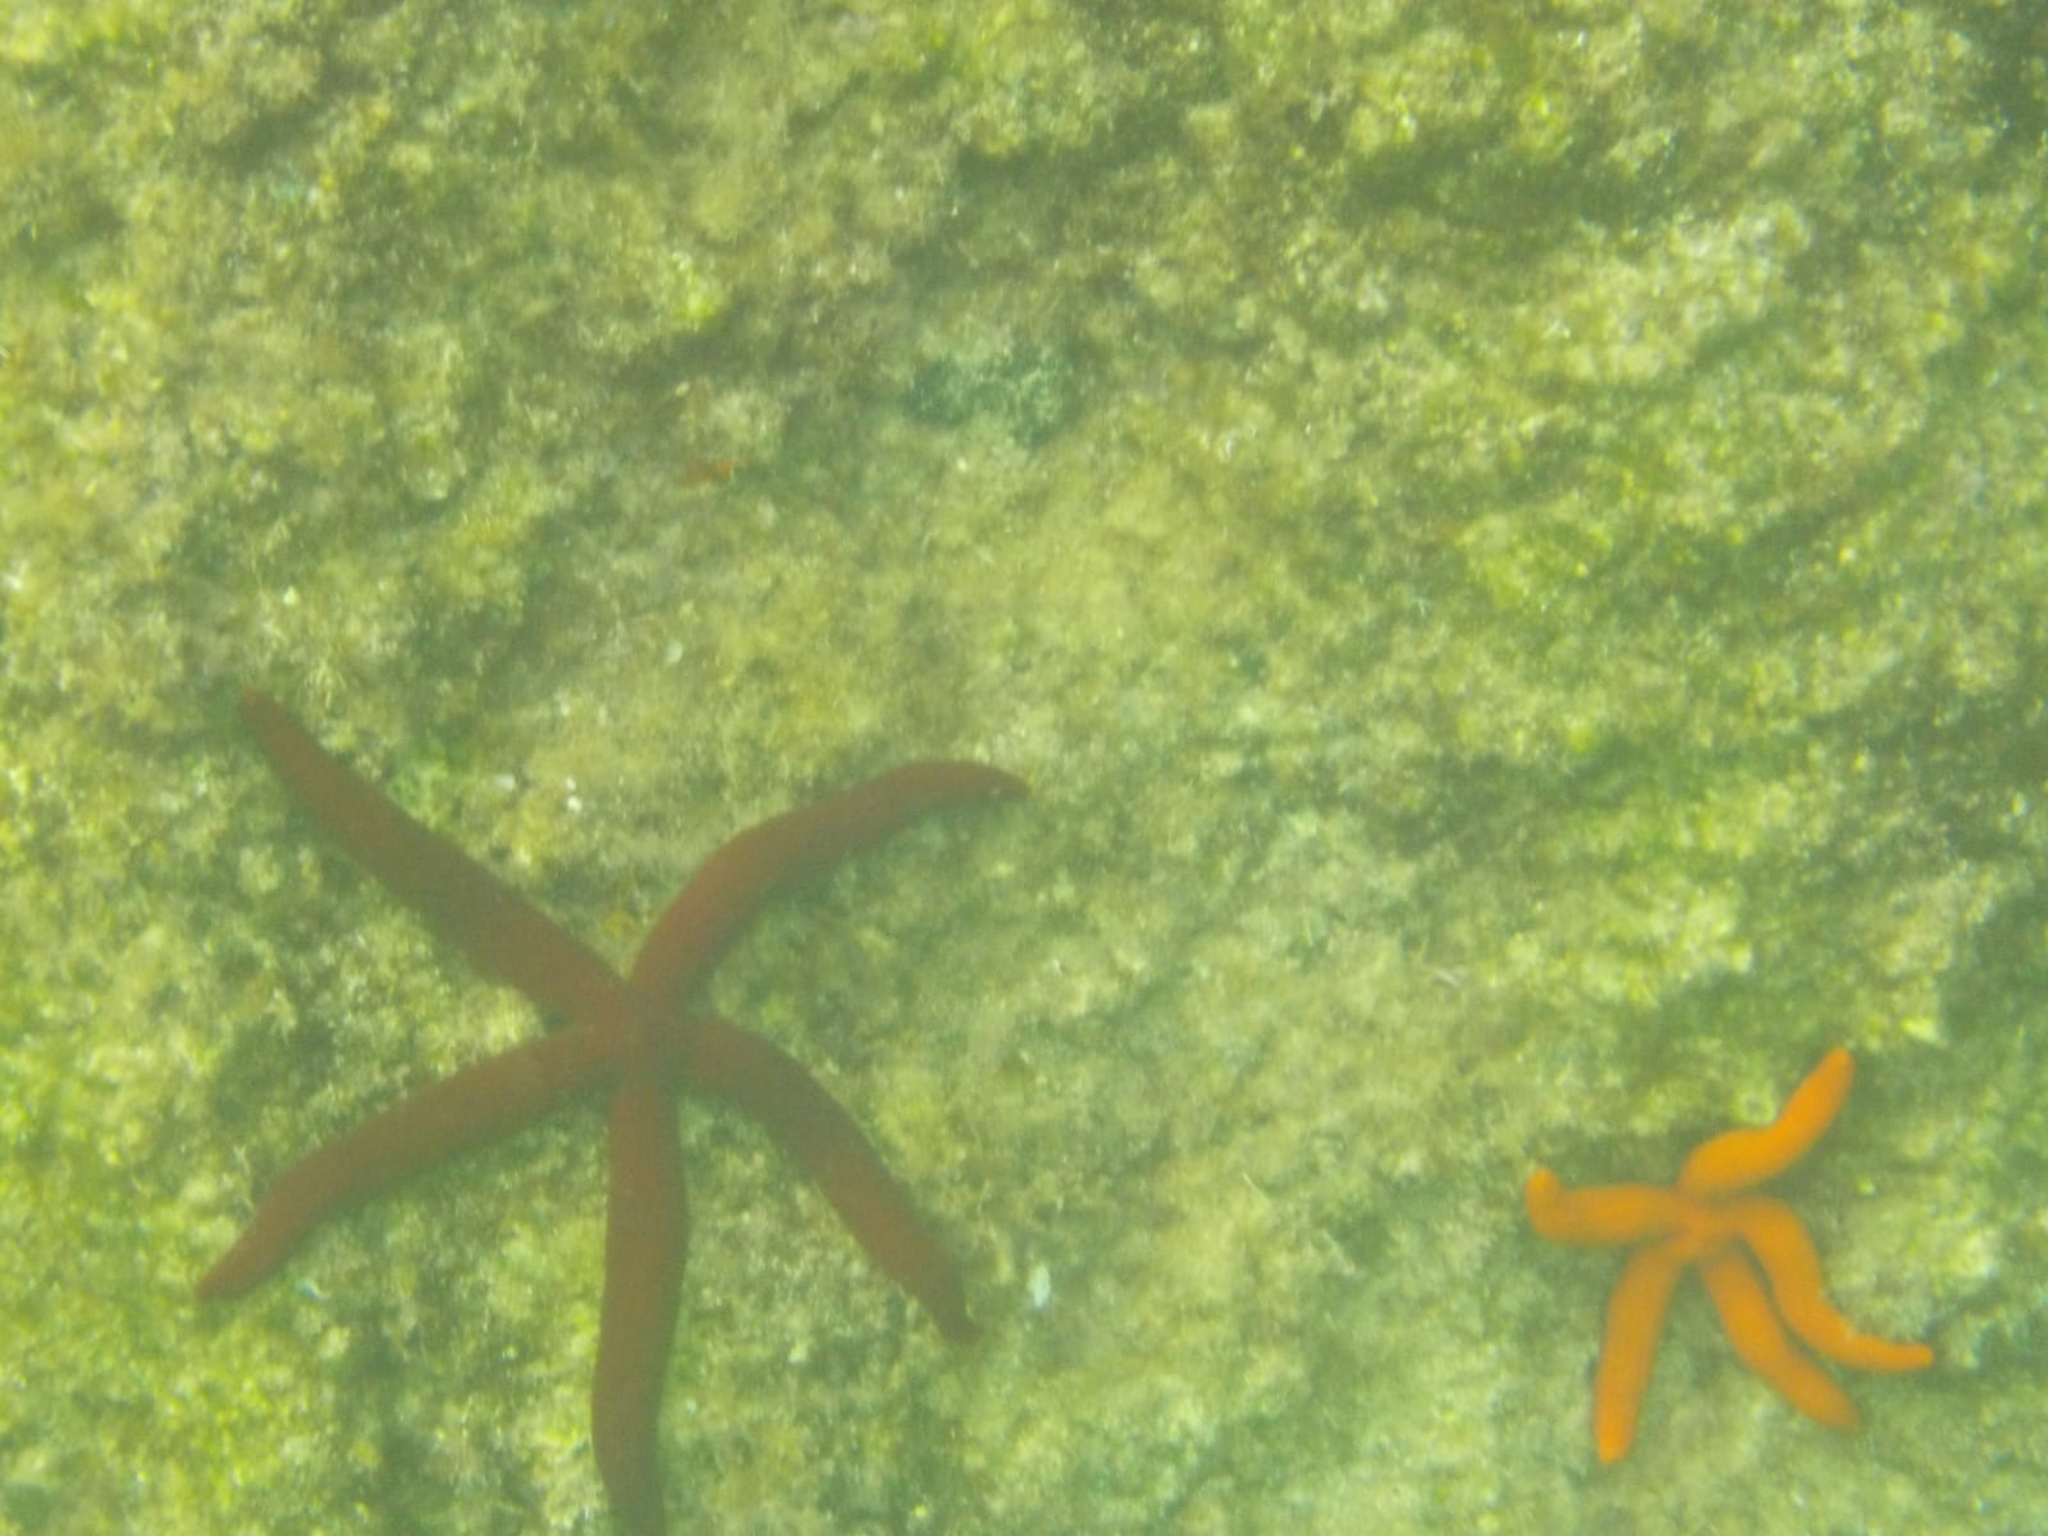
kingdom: Animalia
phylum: Echinodermata
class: Asteroidea
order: Valvatida
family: Ophidiasteridae
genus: Ophidiaster
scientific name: Ophidiaster ophidianus
